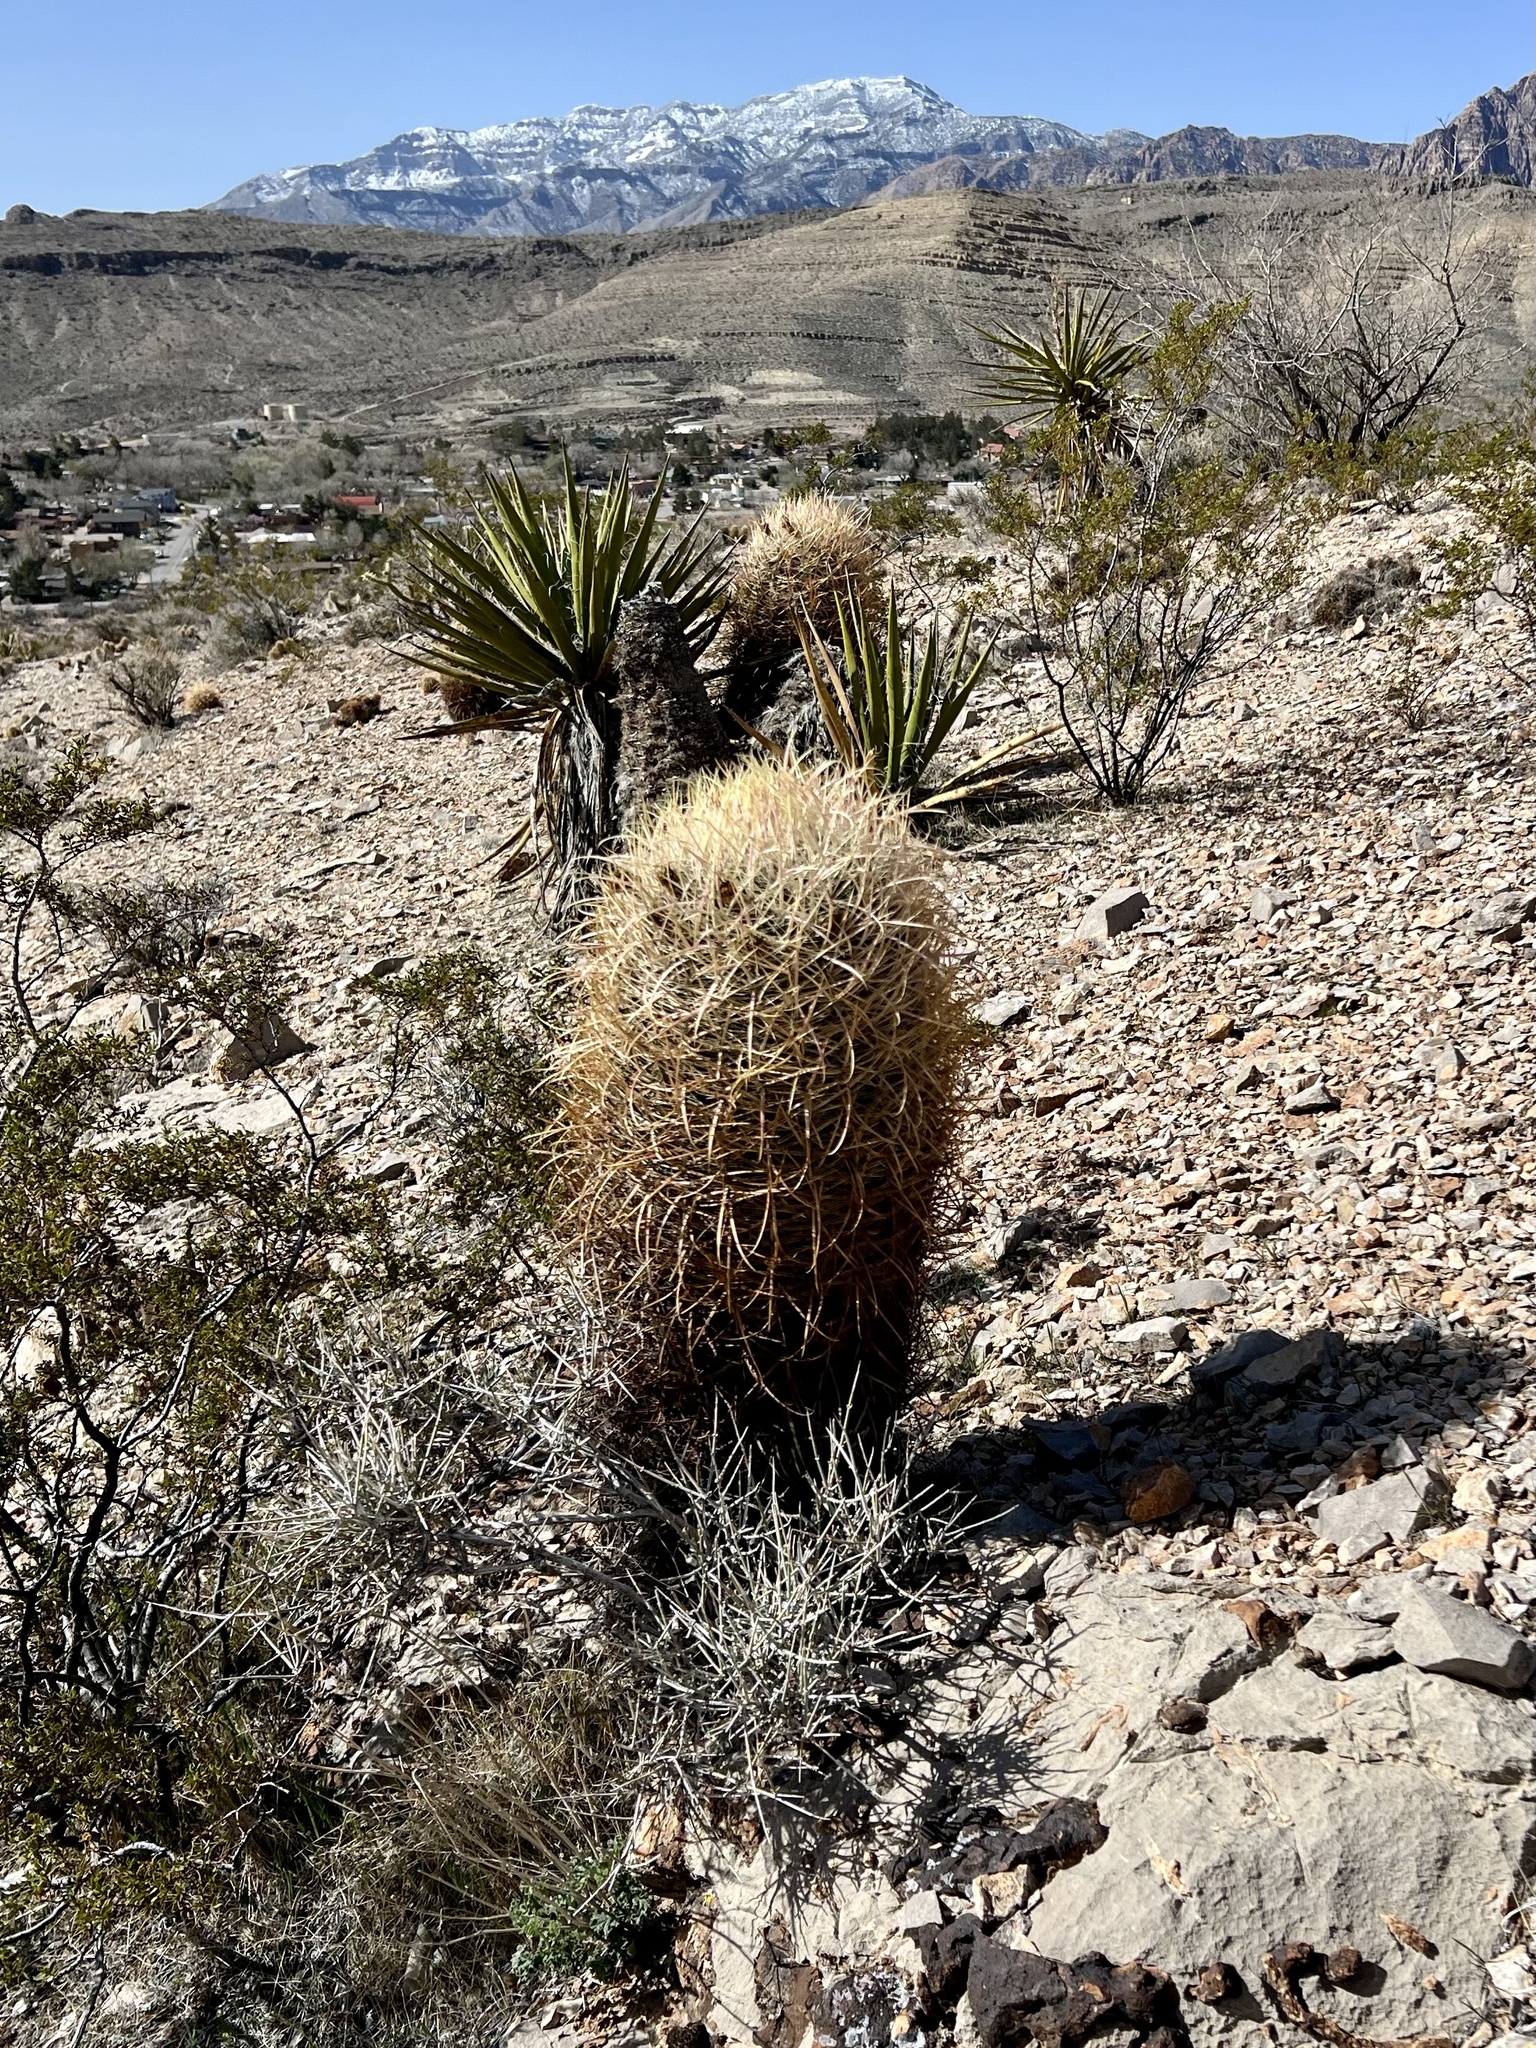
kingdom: Plantae
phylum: Tracheophyta
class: Magnoliopsida
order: Caryophyllales
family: Cactaceae
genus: Ferocactus
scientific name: Ferocactus cylindraceus
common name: California barrel cactus
